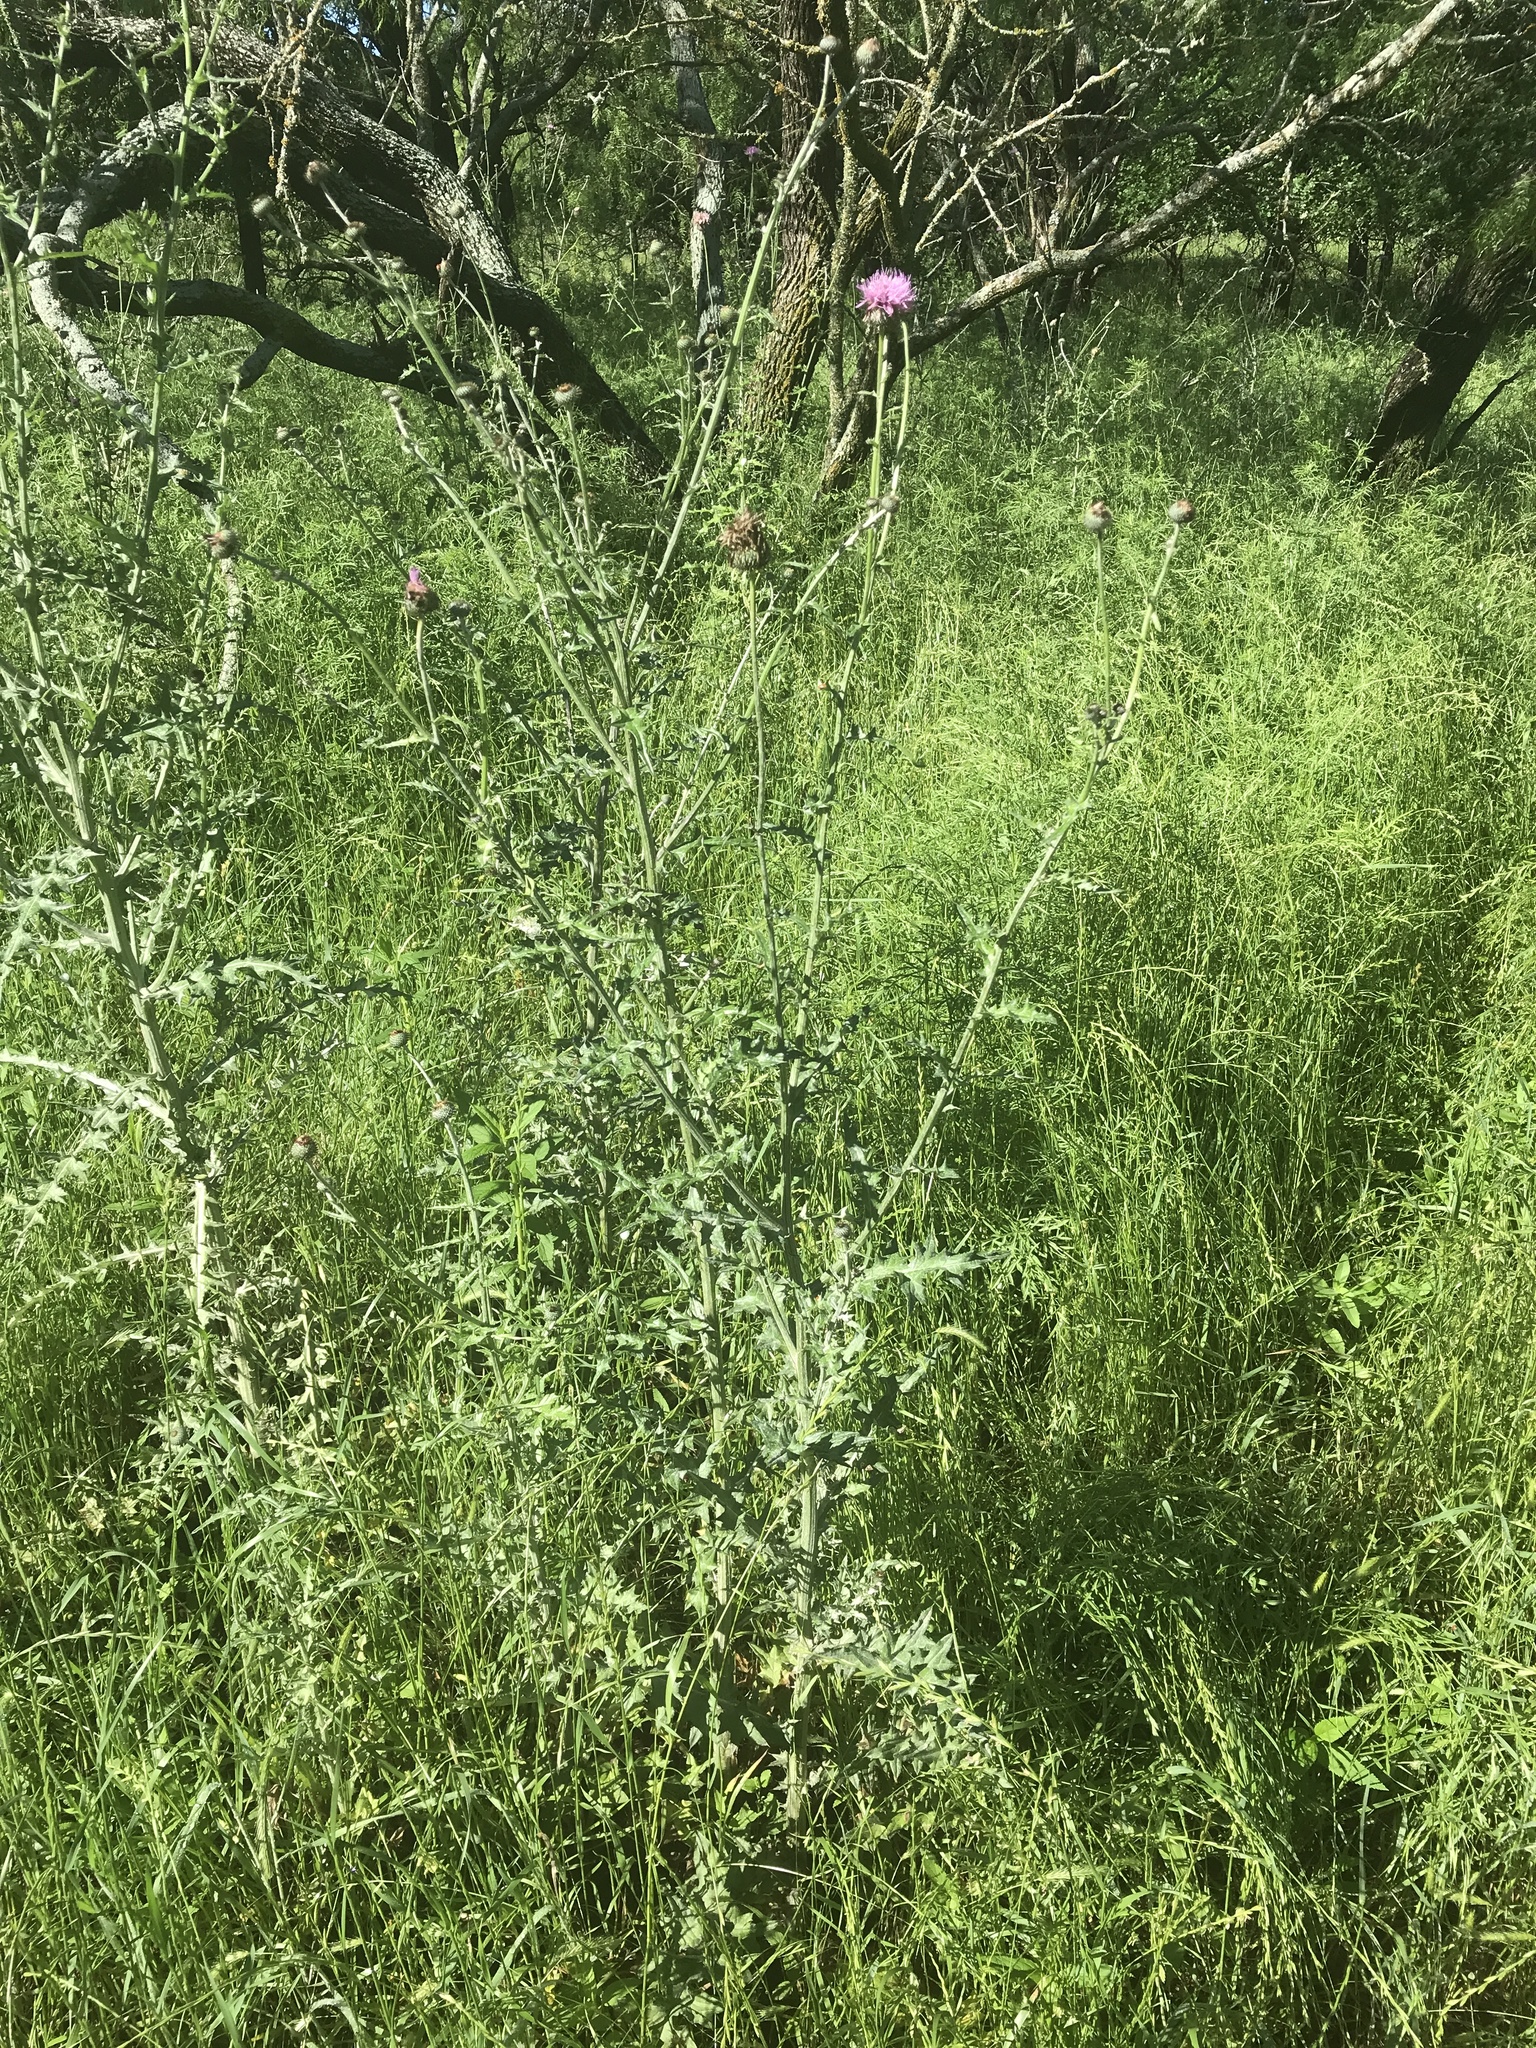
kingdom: Plantae
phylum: Tracheophyta
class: Magnoliopsida
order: Asterales
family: Asteraceae
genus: Cirsium
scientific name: Cirsium texanum
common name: Texas purple thistle
